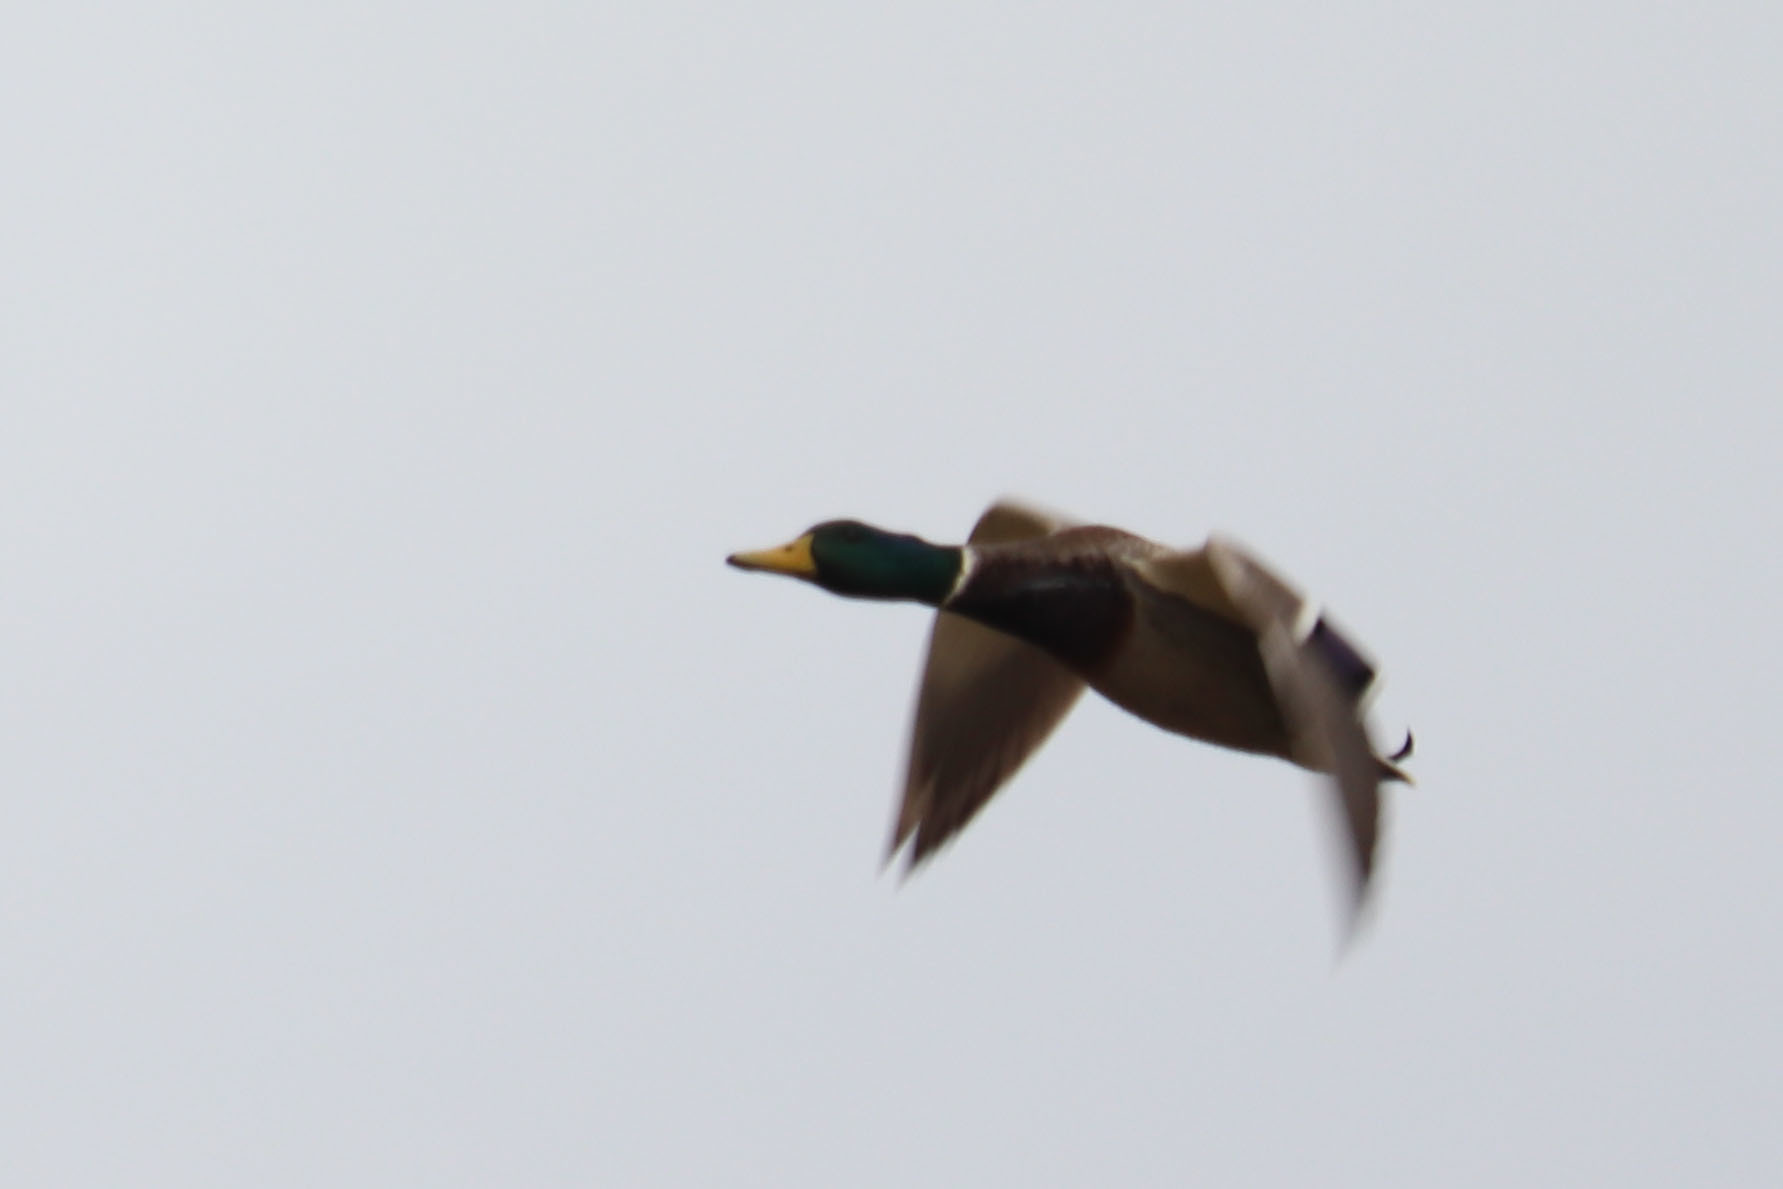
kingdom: Animalia
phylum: Chordata
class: Aves
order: Anseriformes
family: Anatidae
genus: Anas
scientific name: Anas platyrhynchos
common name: Mallard
